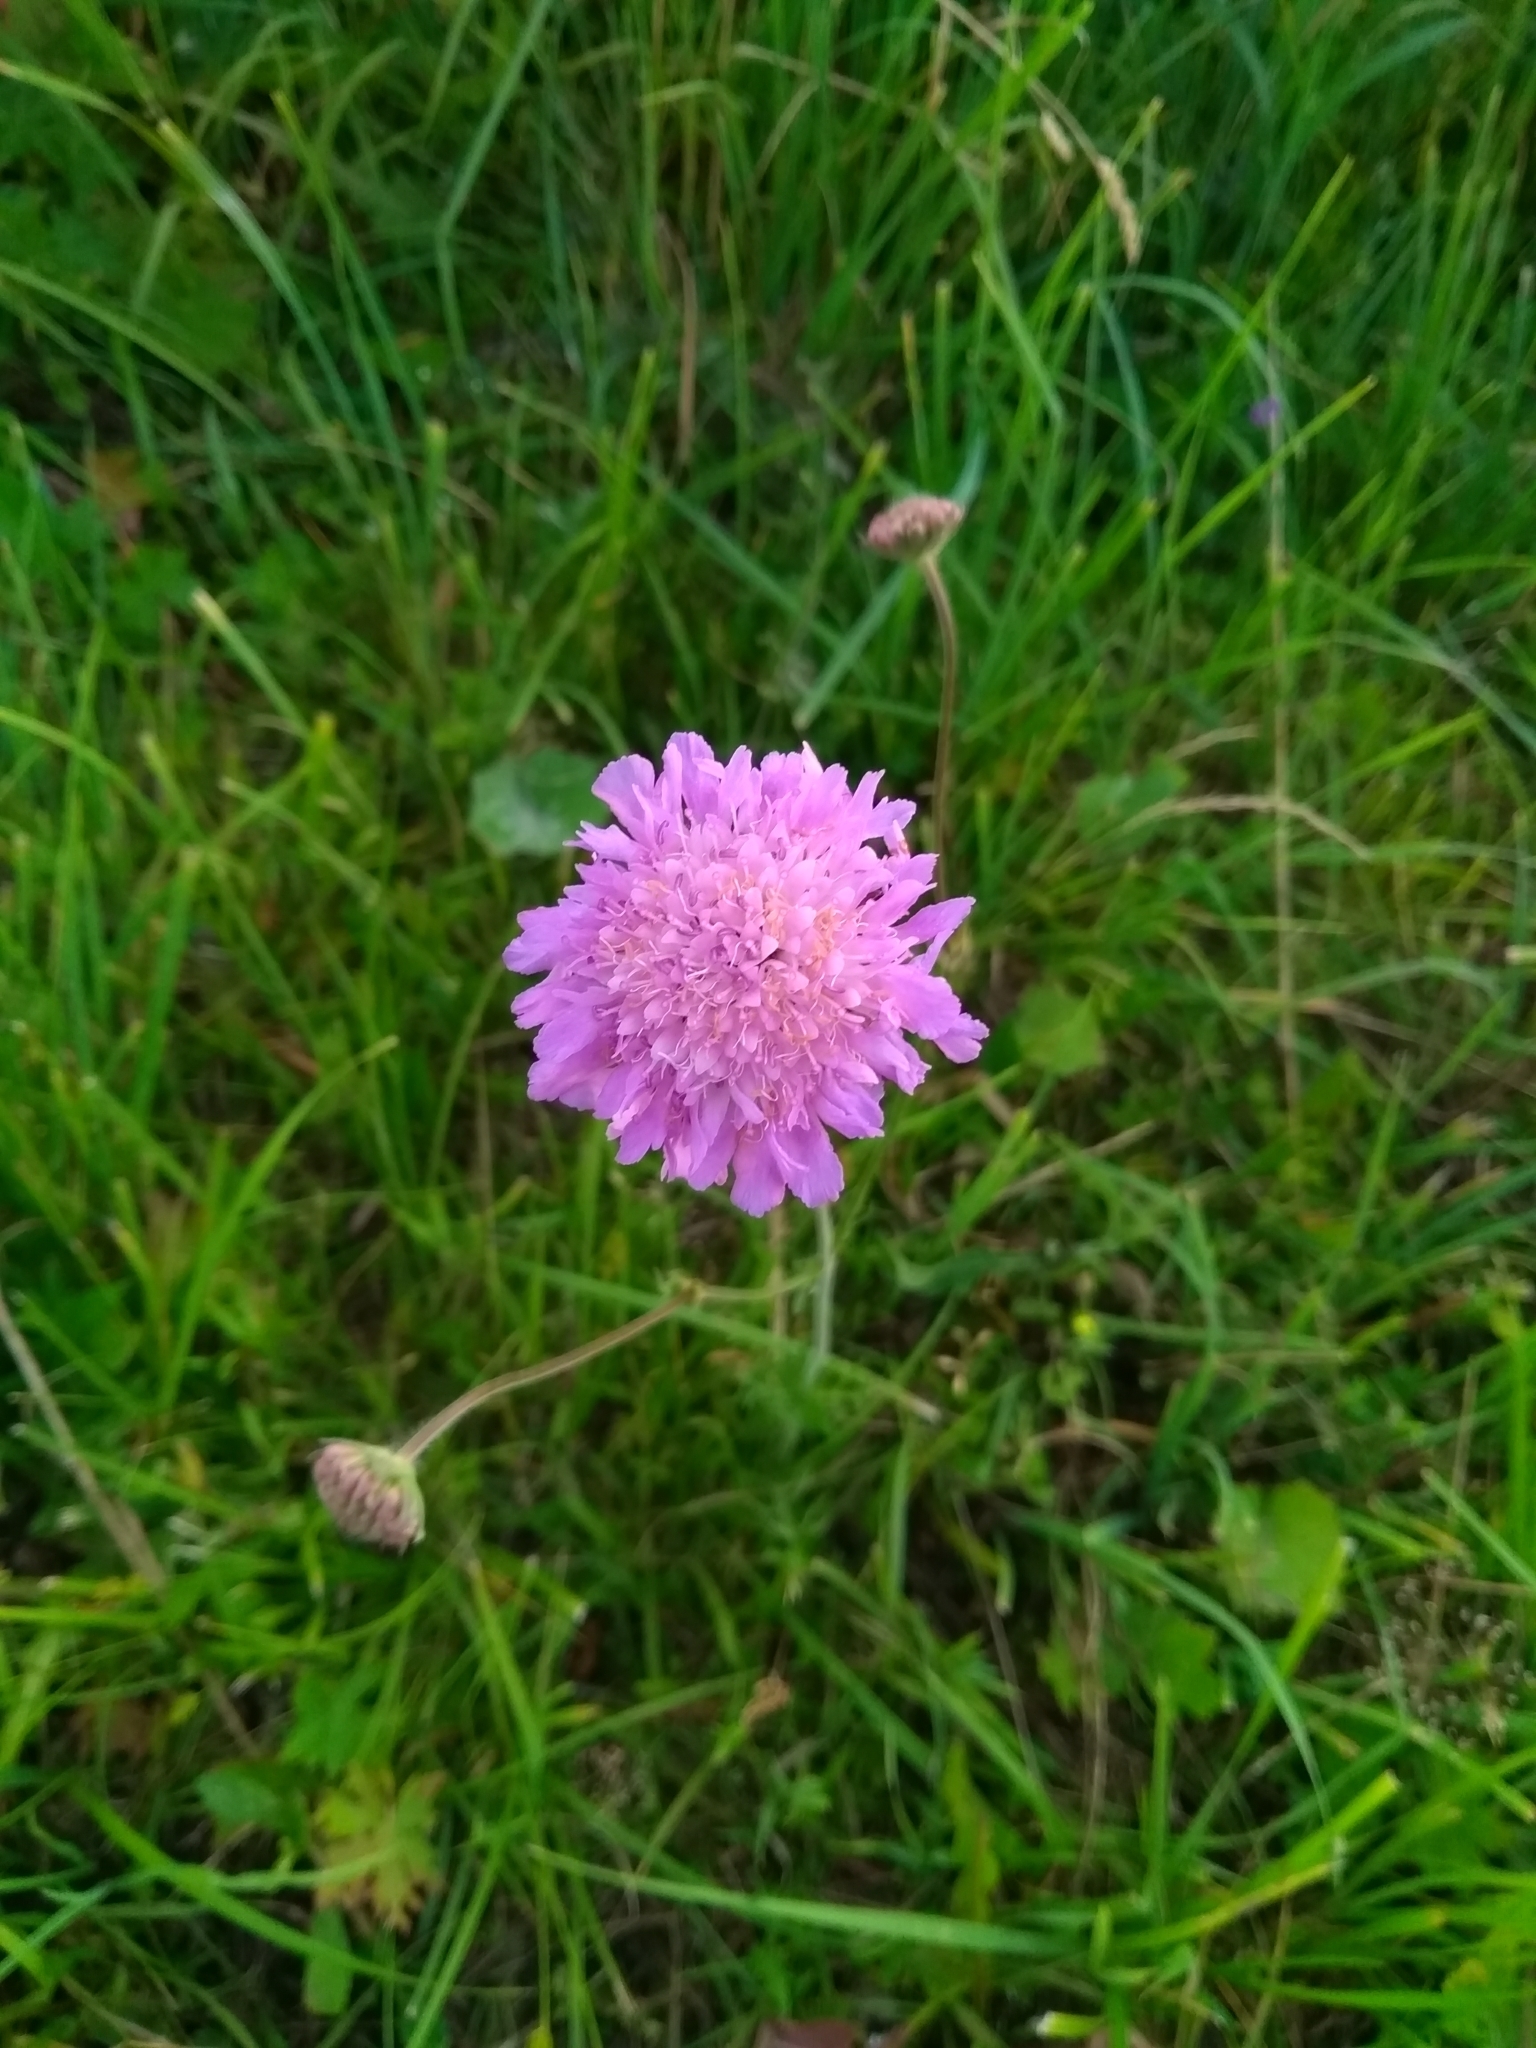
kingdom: Plantae
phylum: Tracheophyta
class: Magnoliopsida
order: Dipsacales
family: Caprifoliaceae
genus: Knautia
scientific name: Knautia arvensis
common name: Field scabiosa
